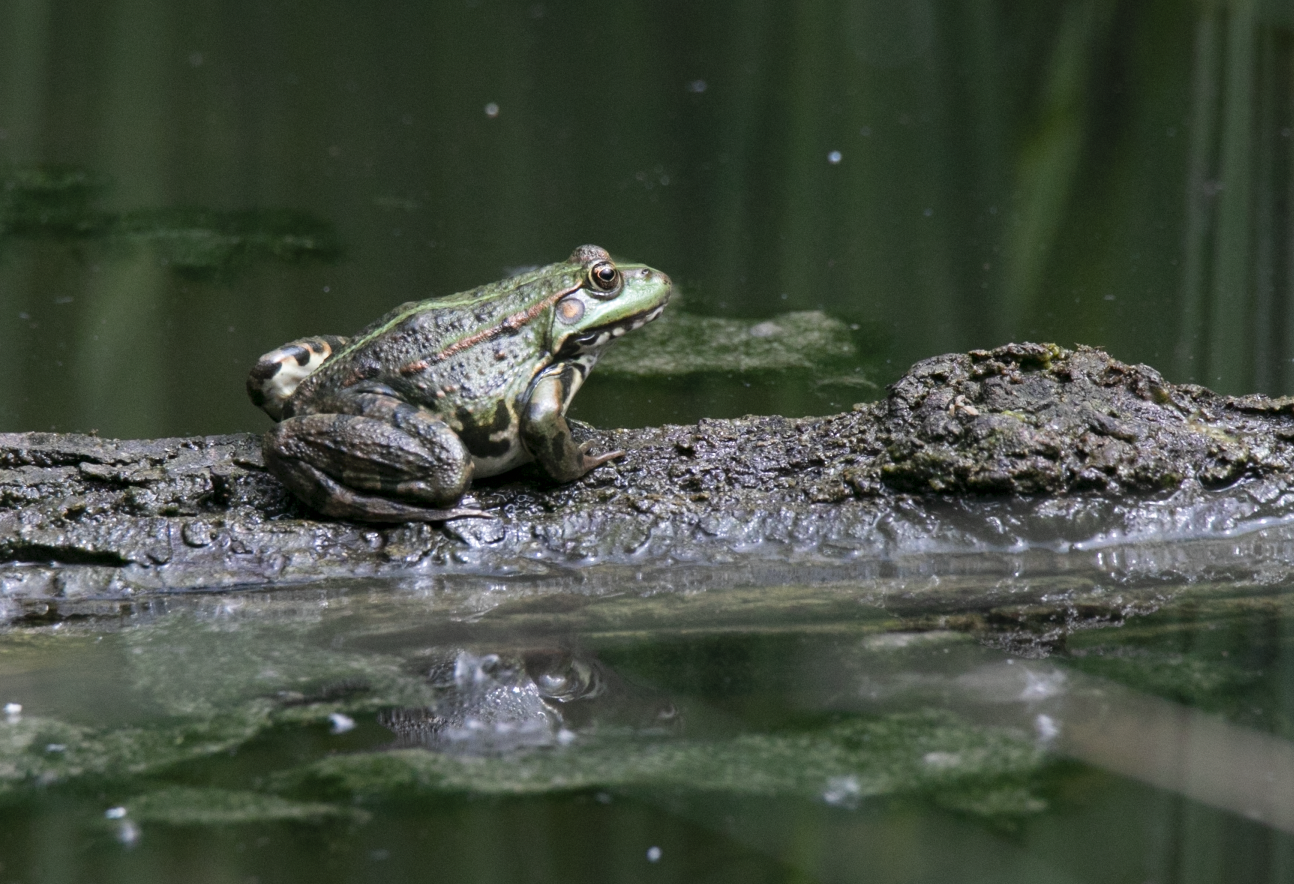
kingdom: Animalia
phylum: Chordata
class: Amphibia
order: Anura
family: Ranidae
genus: Pelophylax
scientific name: Pelophylax
